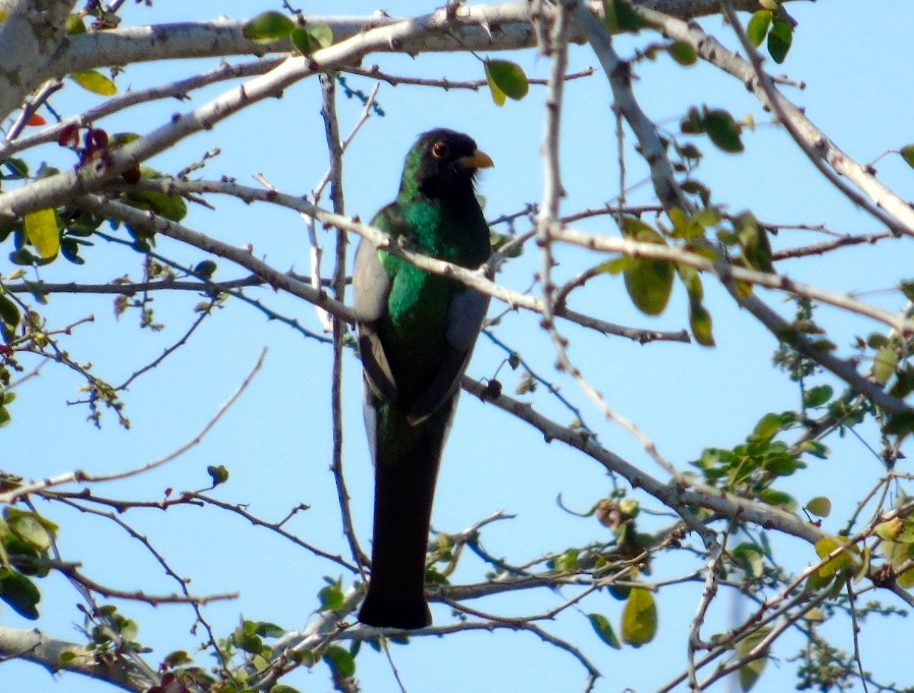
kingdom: Animalia
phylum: Chordata
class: Aves
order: Trogoniformes
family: Trogonidae
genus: Trogon
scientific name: Trogon elegans
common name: Elegant trogon
